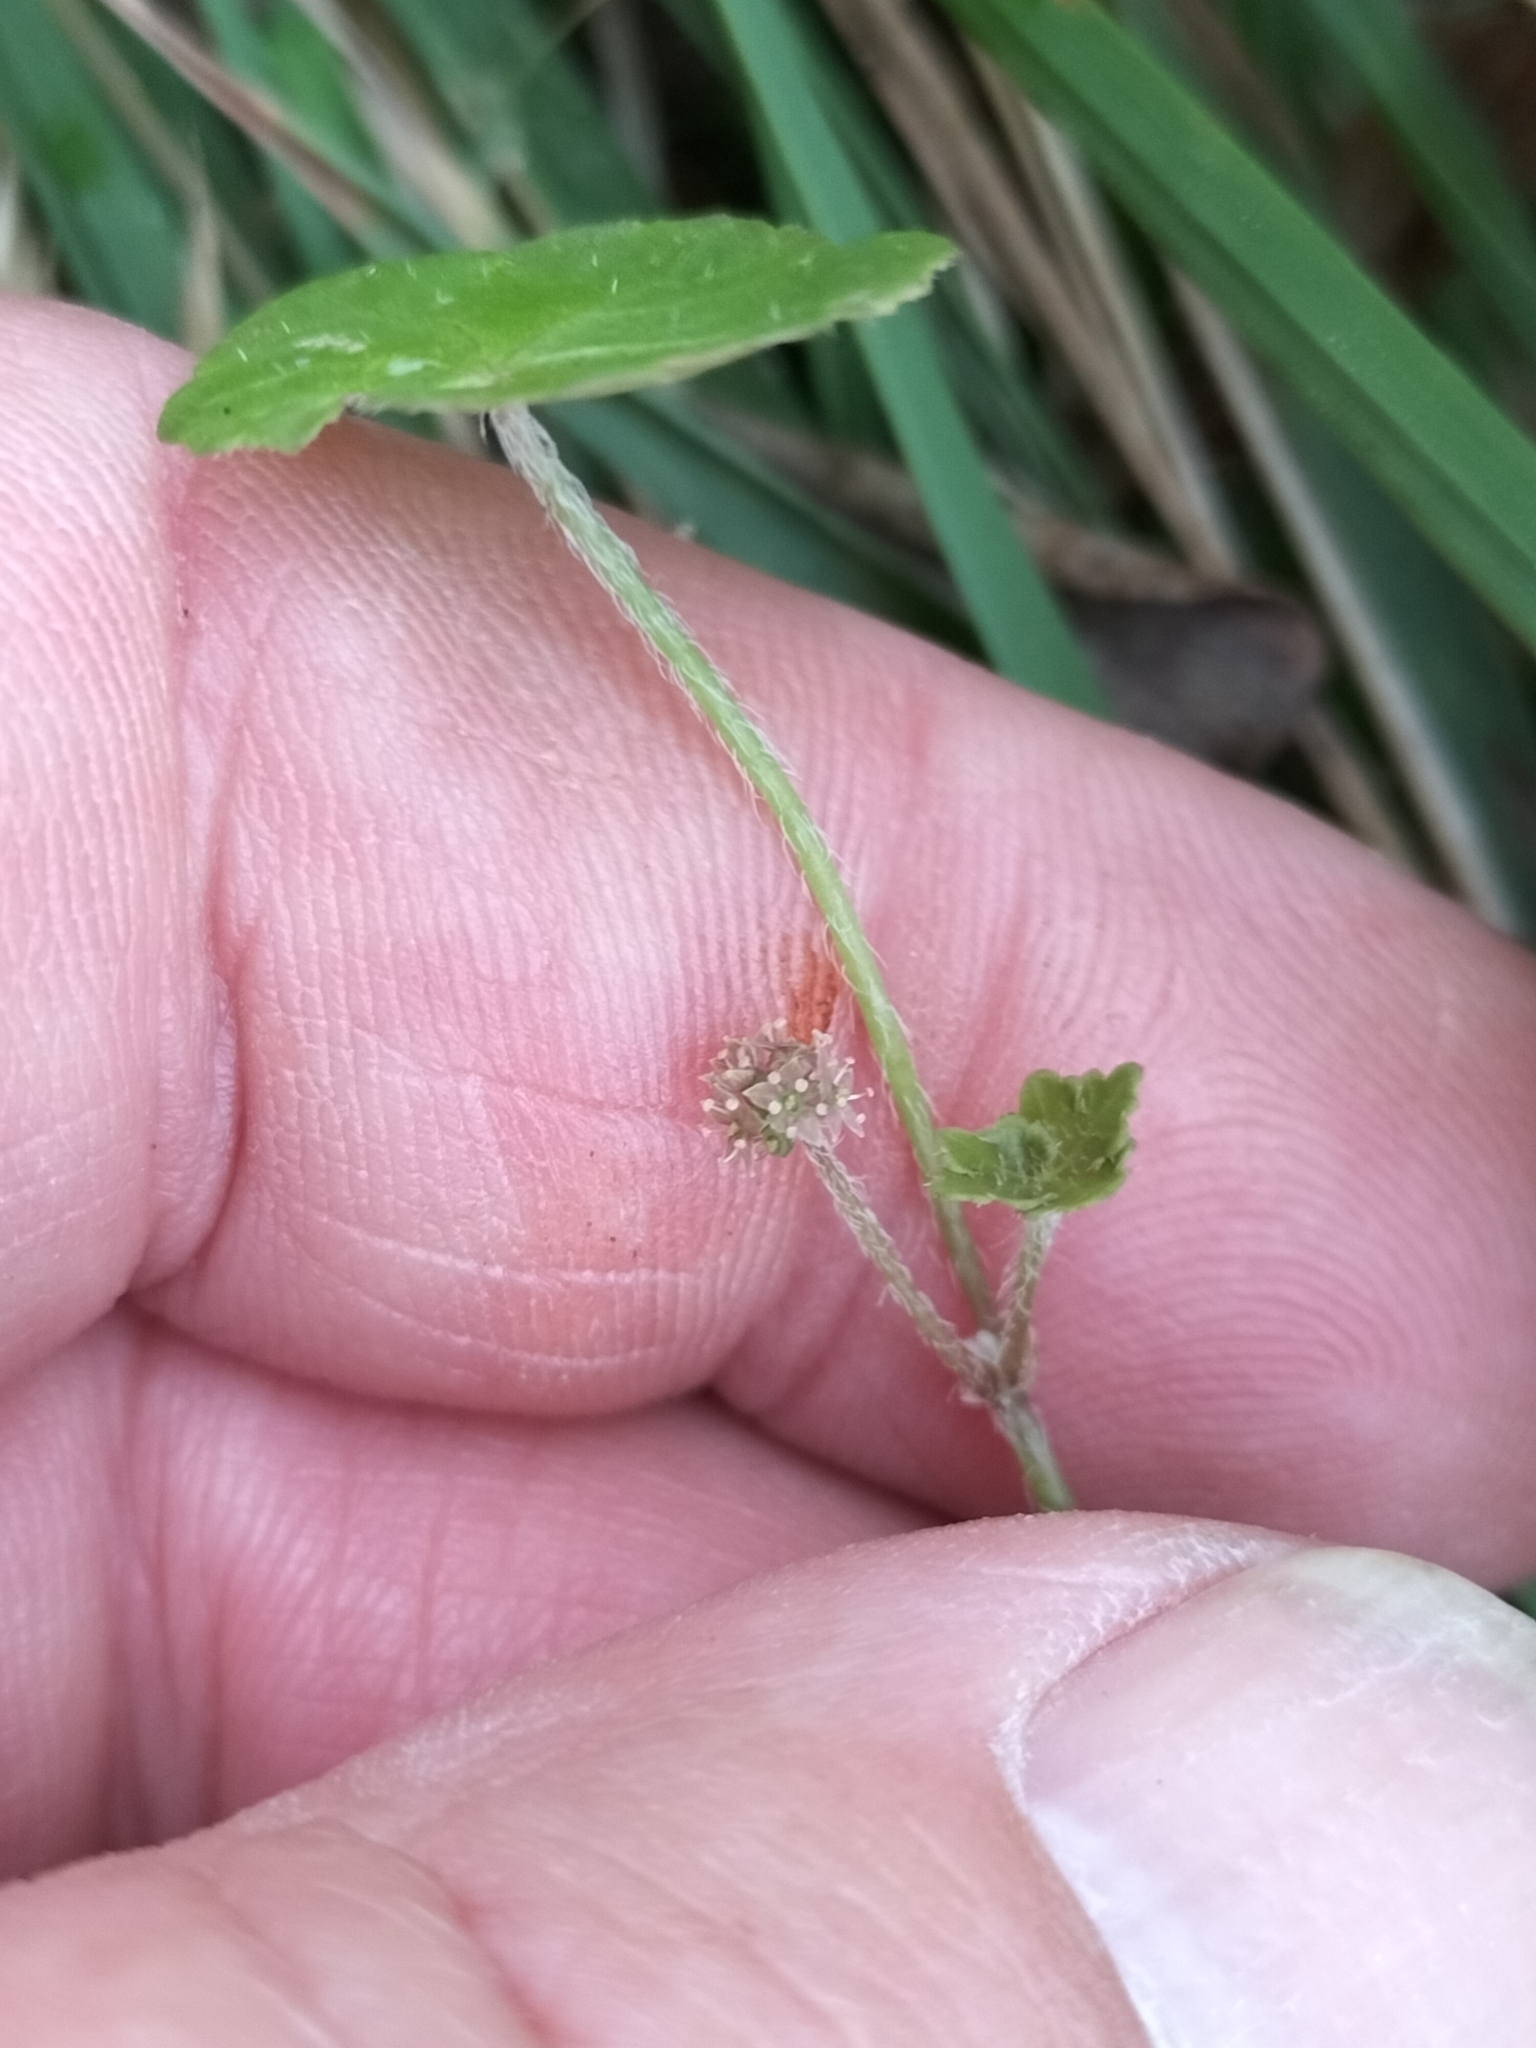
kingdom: Plantae
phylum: Tracheophyta
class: Magnoliopsida
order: Apiales
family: Araliaceae
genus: Hydrocotyle
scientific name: Hydrocotyle novae-zeelandiae
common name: New zealand pennywort
